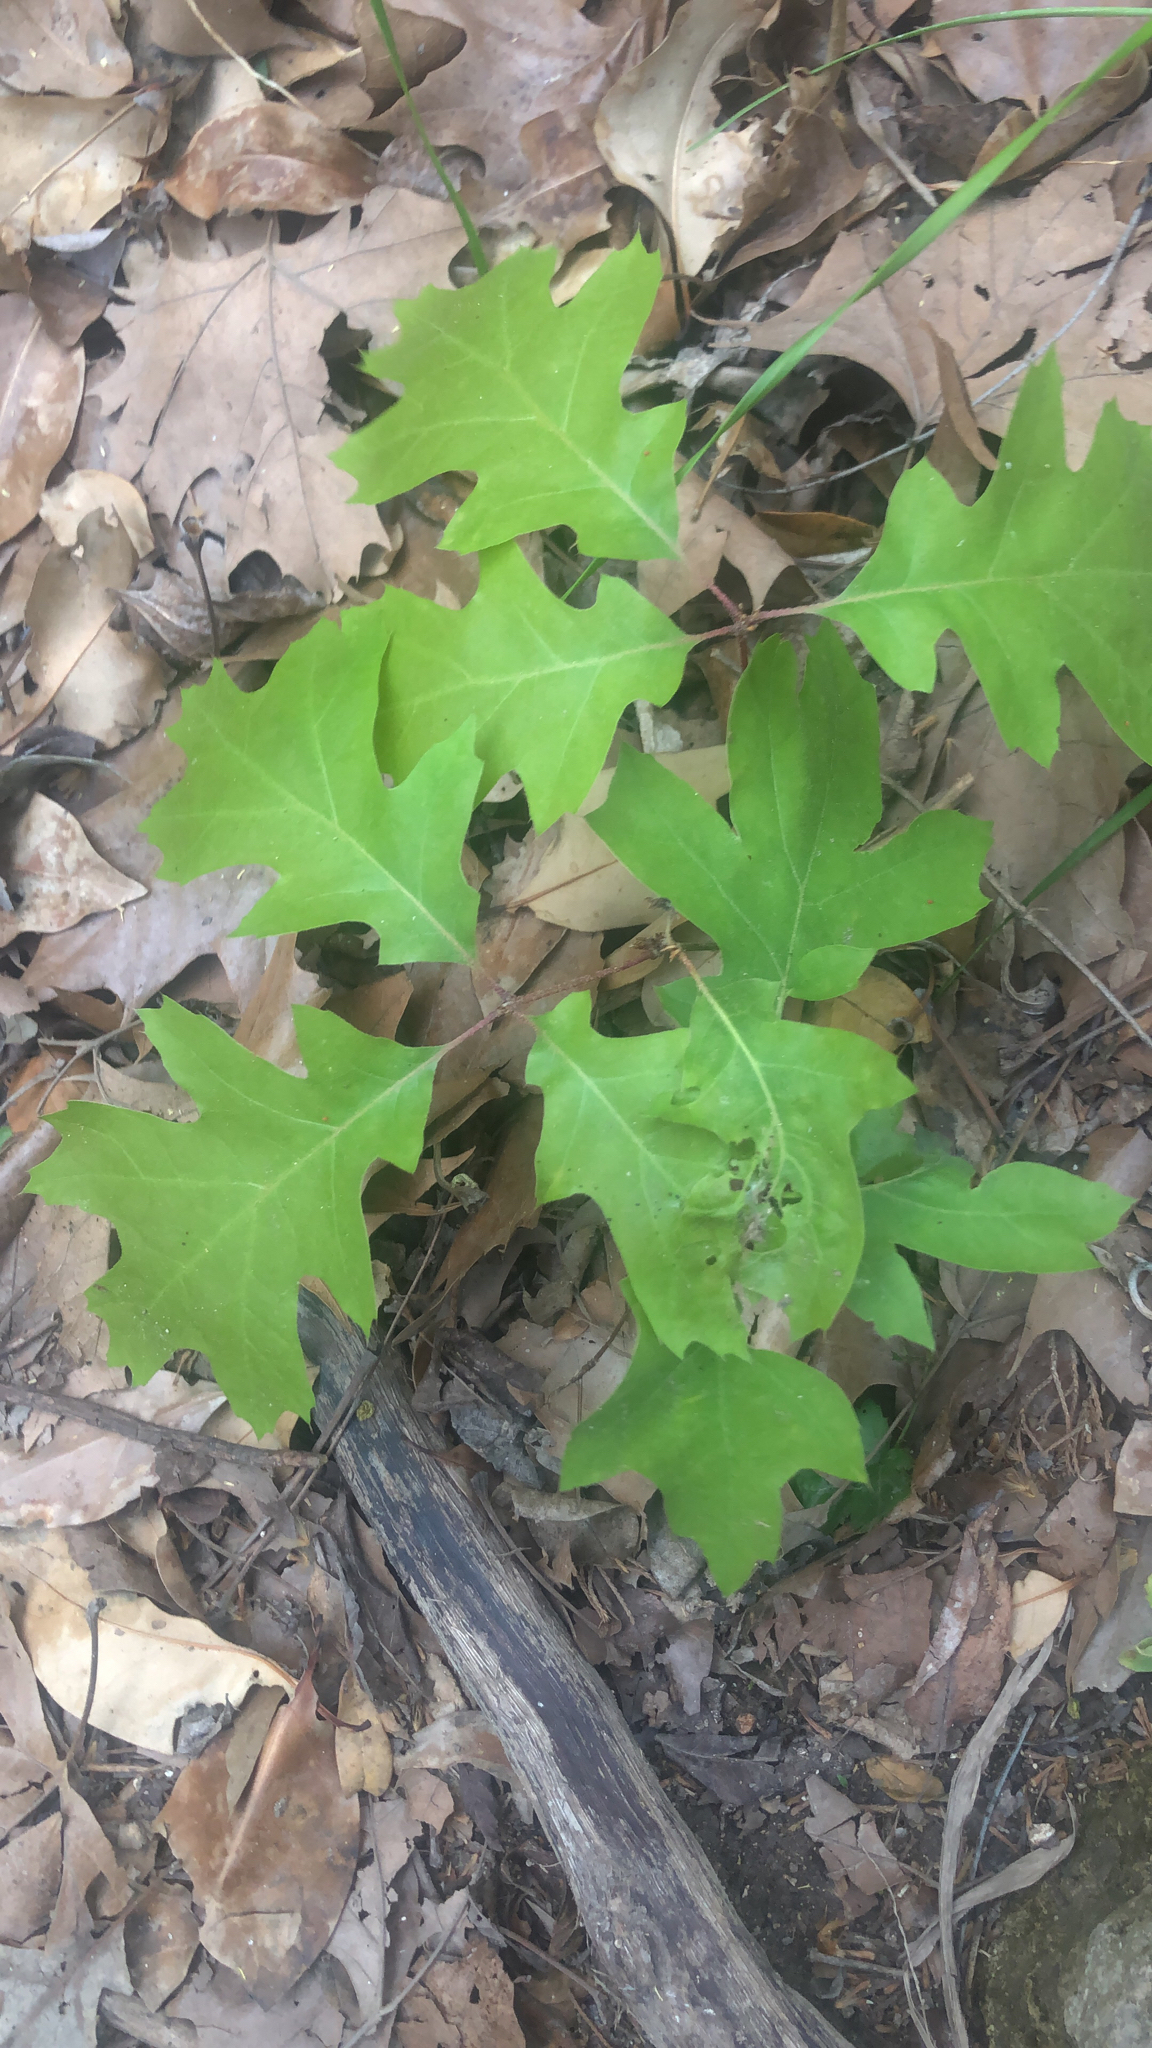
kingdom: Plantae
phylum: Tracheophyta
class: Magnoliopsida
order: Fagales
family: Fagaceae
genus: Quercus
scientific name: Quercus buckleyi
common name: Buckley oak
